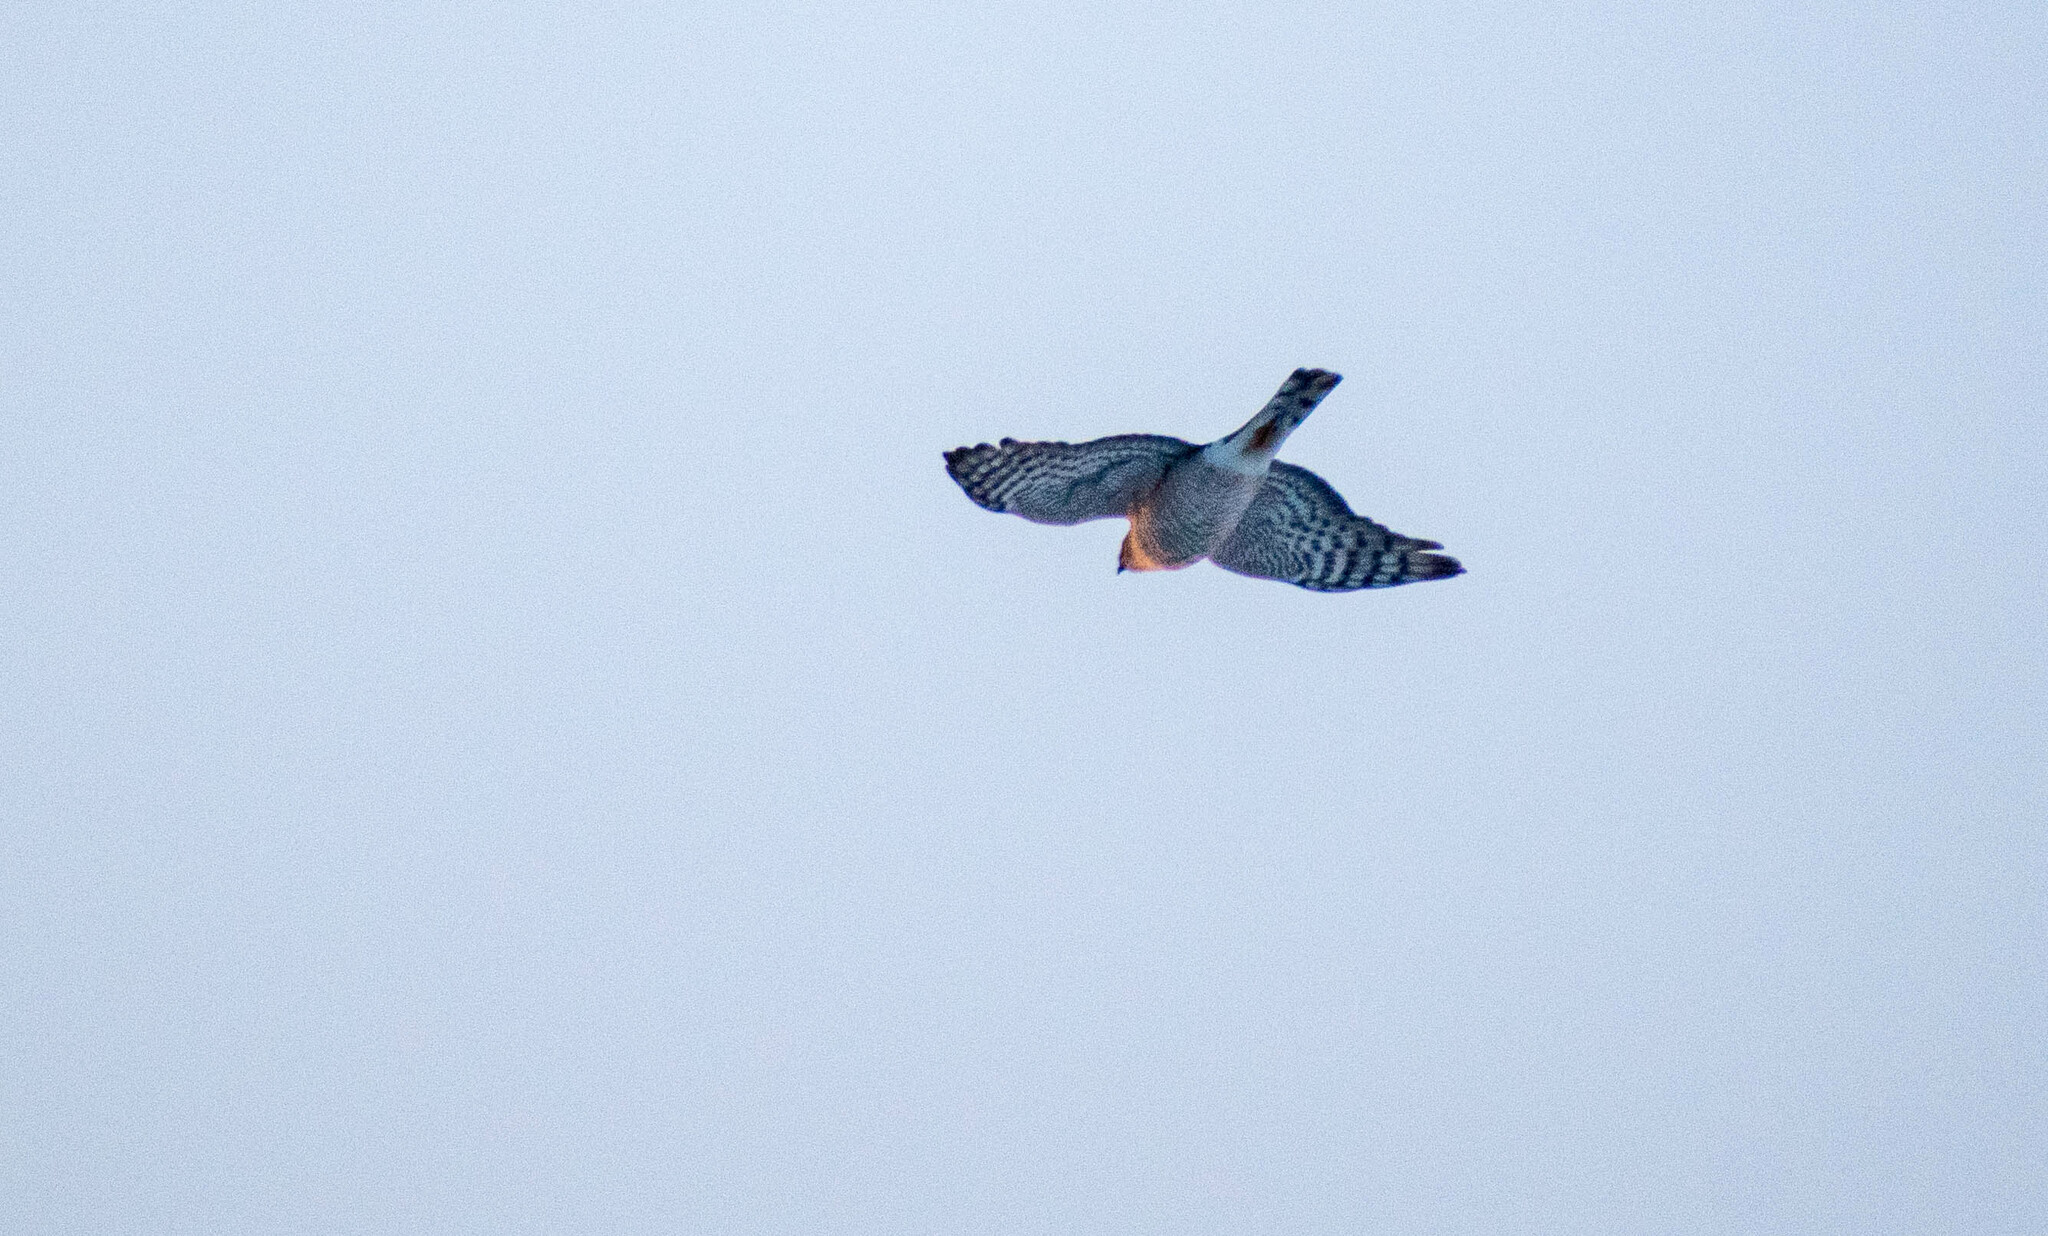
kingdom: Animalia
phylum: Chordata
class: Aves
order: Accipitriformes
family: Accipitridae
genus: Accipiter
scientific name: Accipiter nisus
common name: Eurasian sparrowhawk
